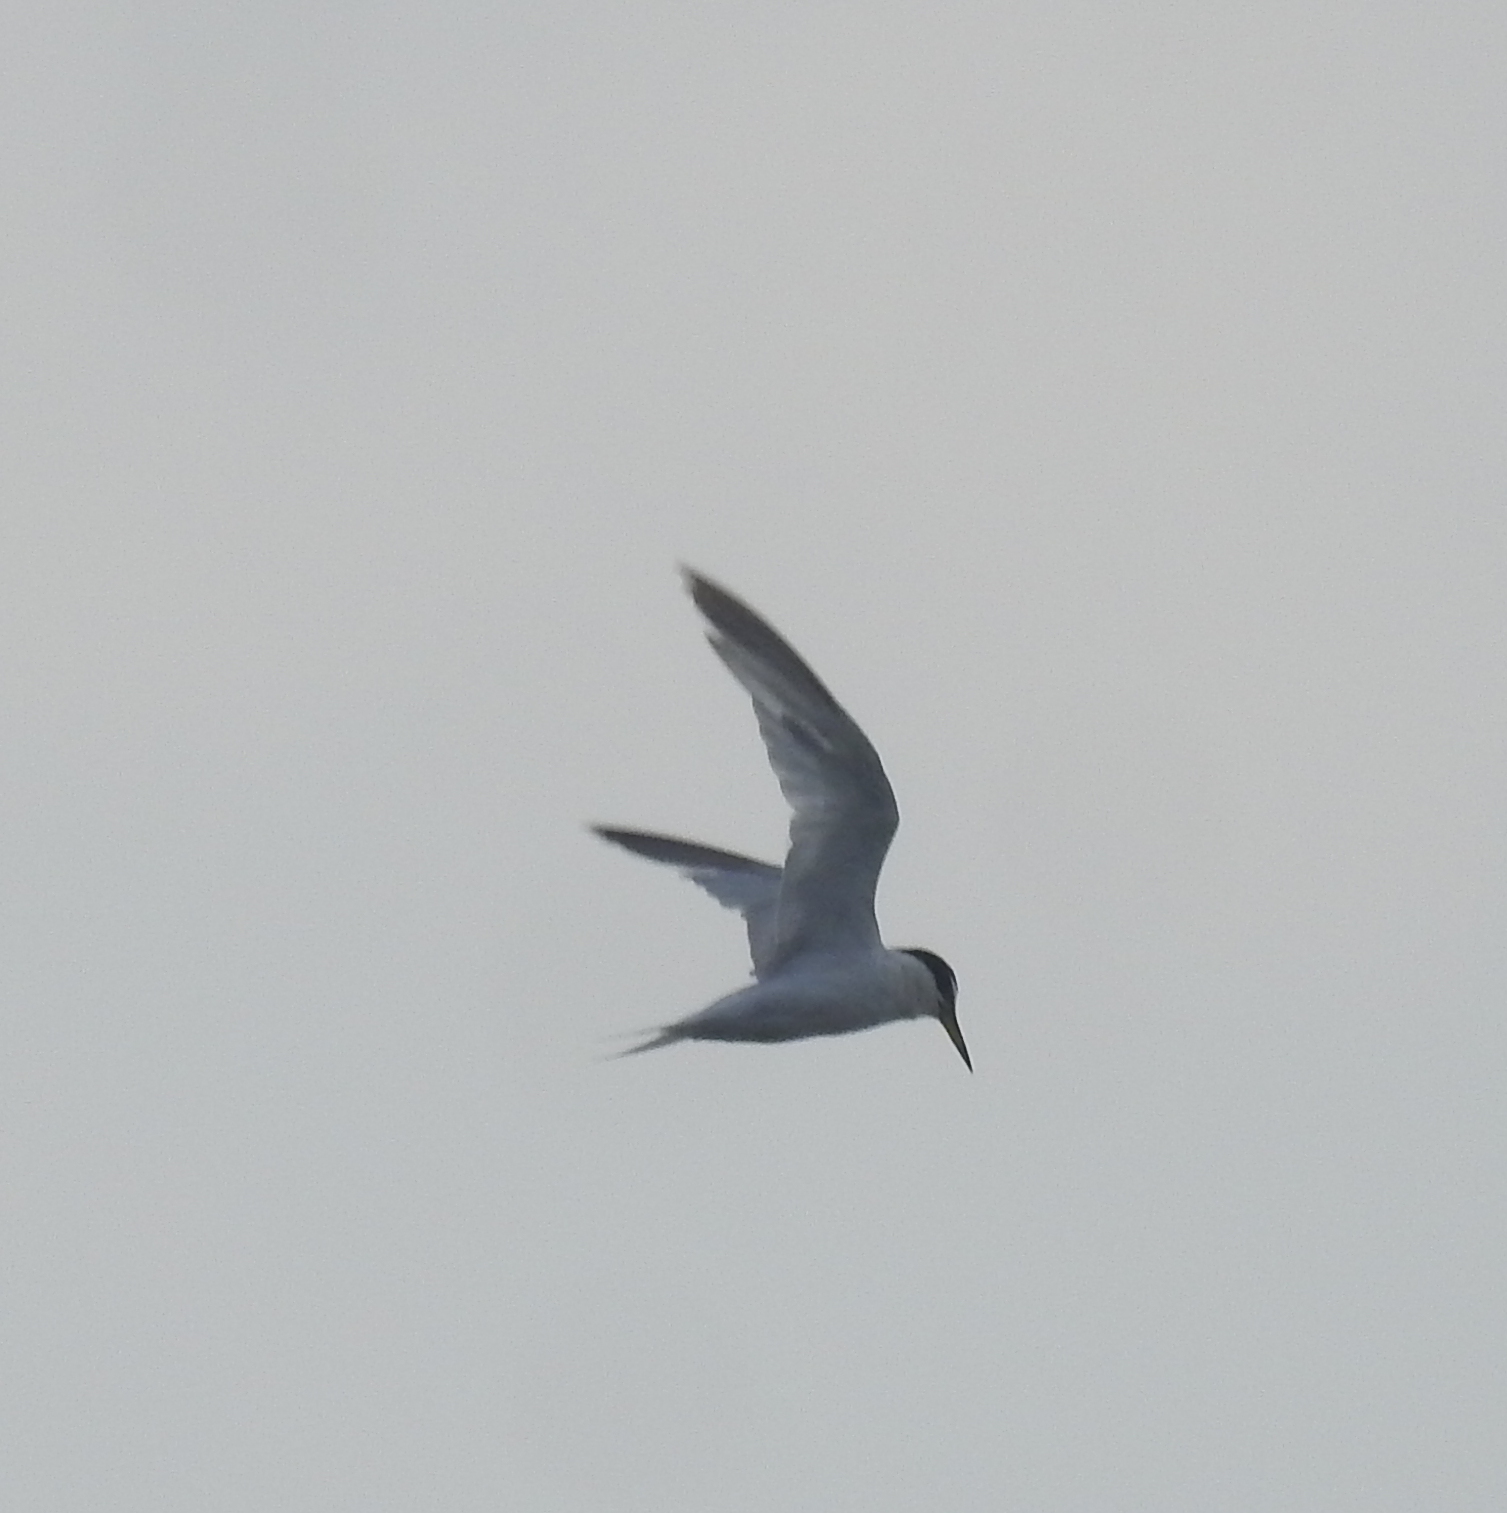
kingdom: Animalia
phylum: Chordata
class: Aves
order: Charadriiformes
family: Laridae
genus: Sternula
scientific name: Sternula albifrons
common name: Little tern
